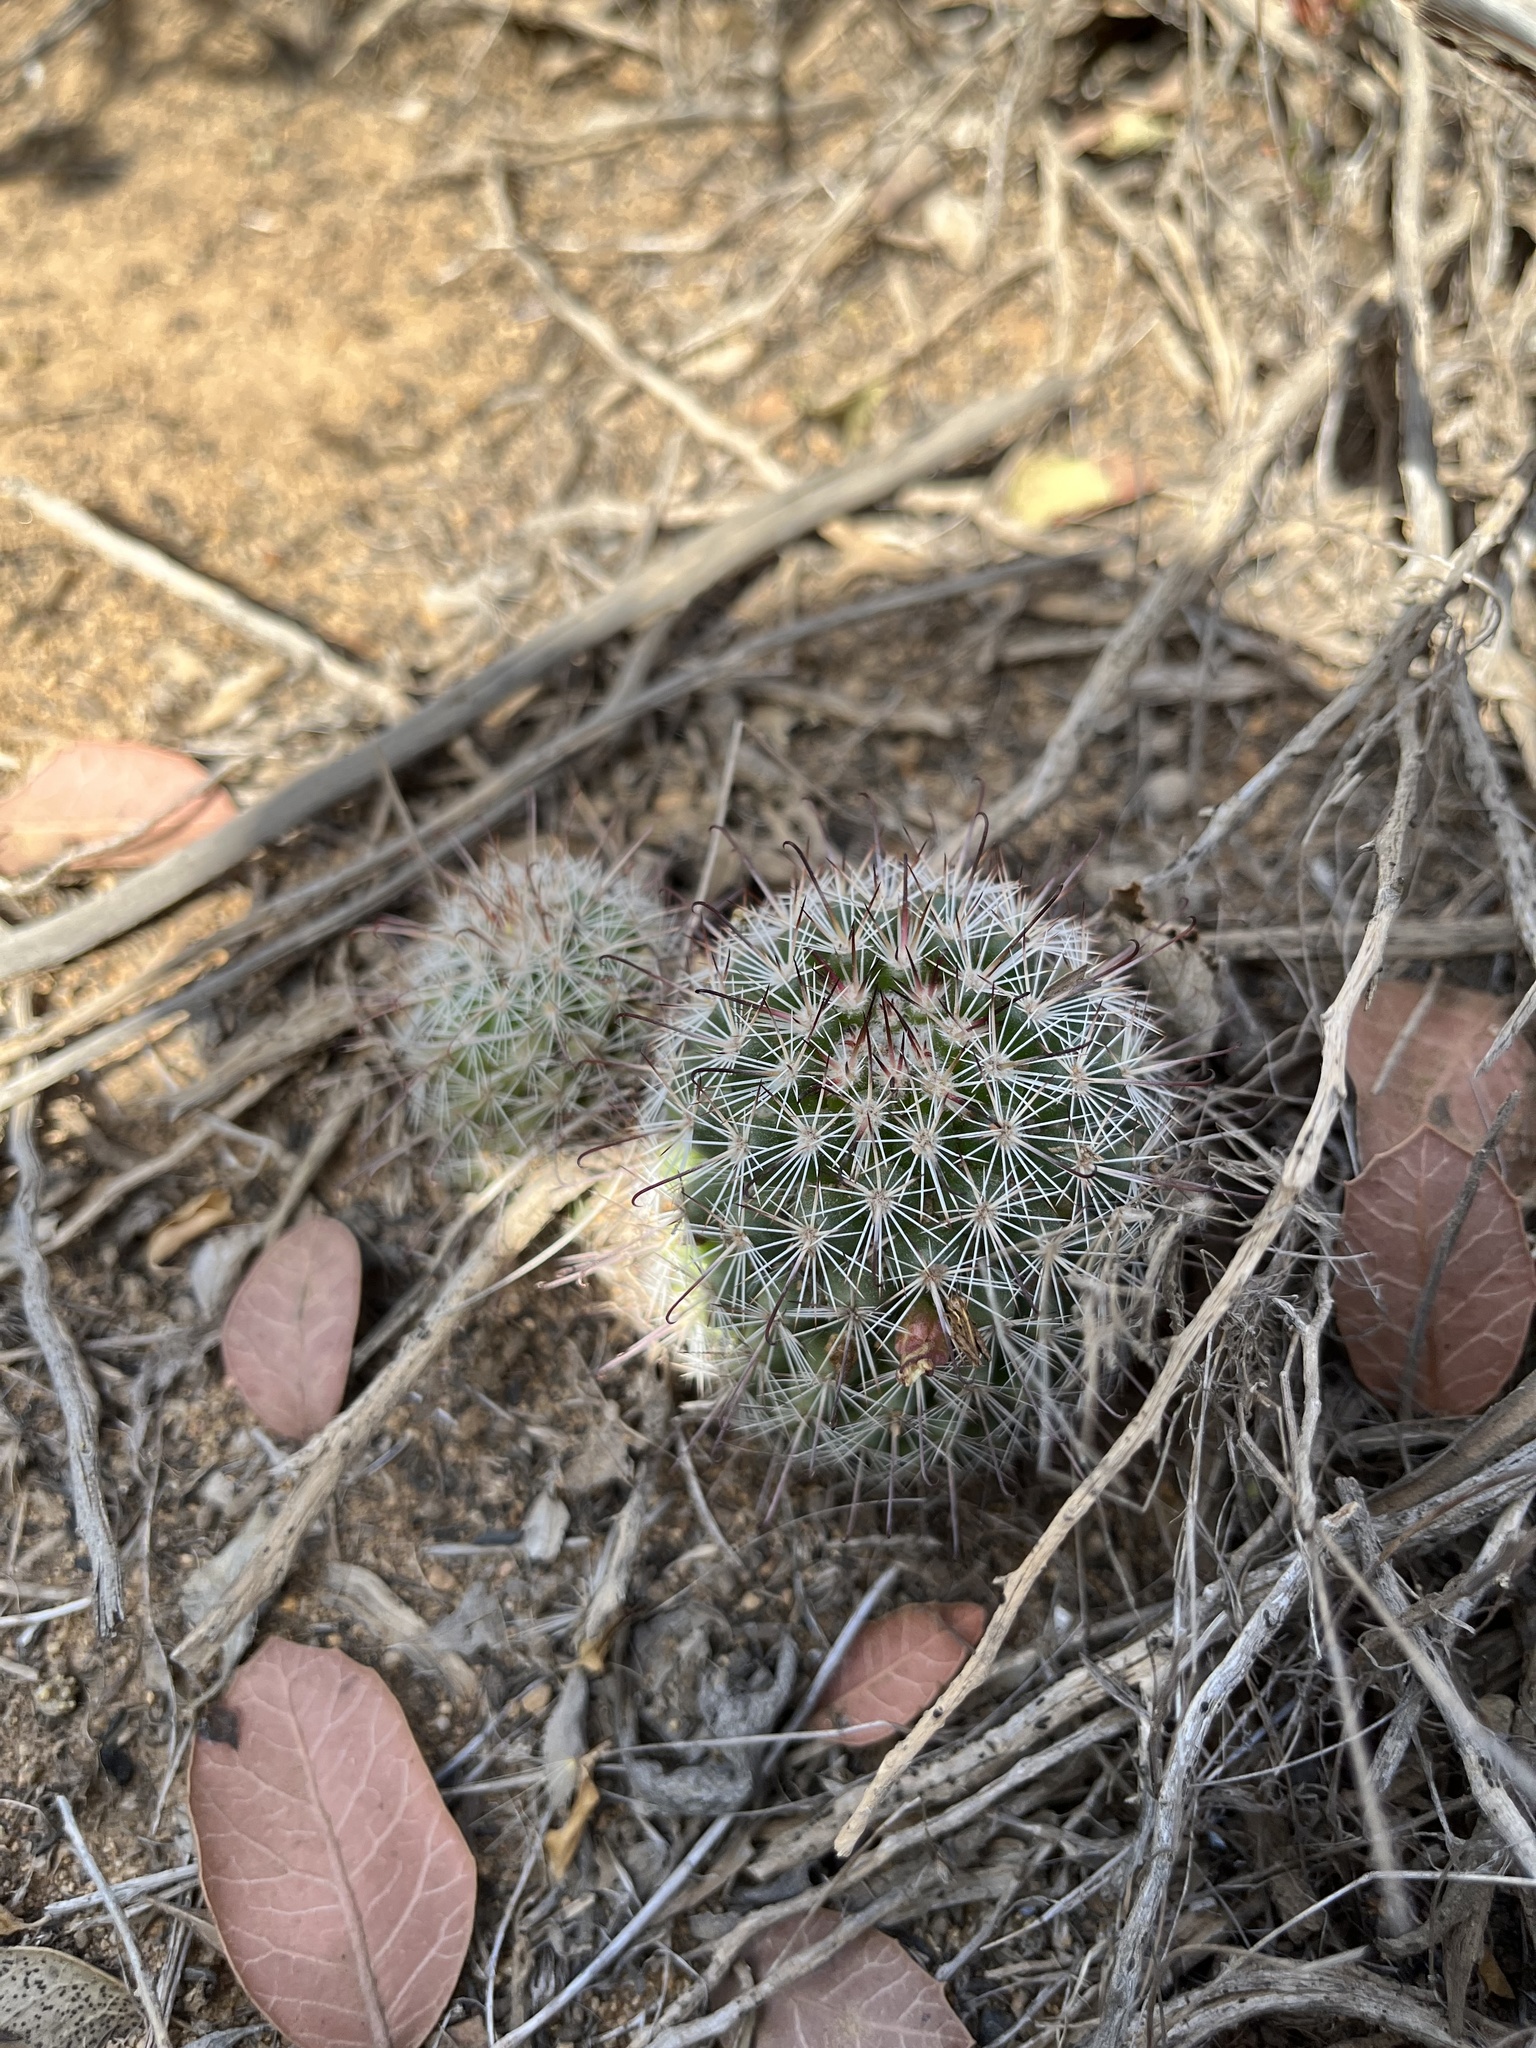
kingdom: Plantae
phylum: Tracheophyta
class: Magnoliopsida
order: Caryophyllales
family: Cactaceae
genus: Cochemiea
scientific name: Cochemiea dioica
